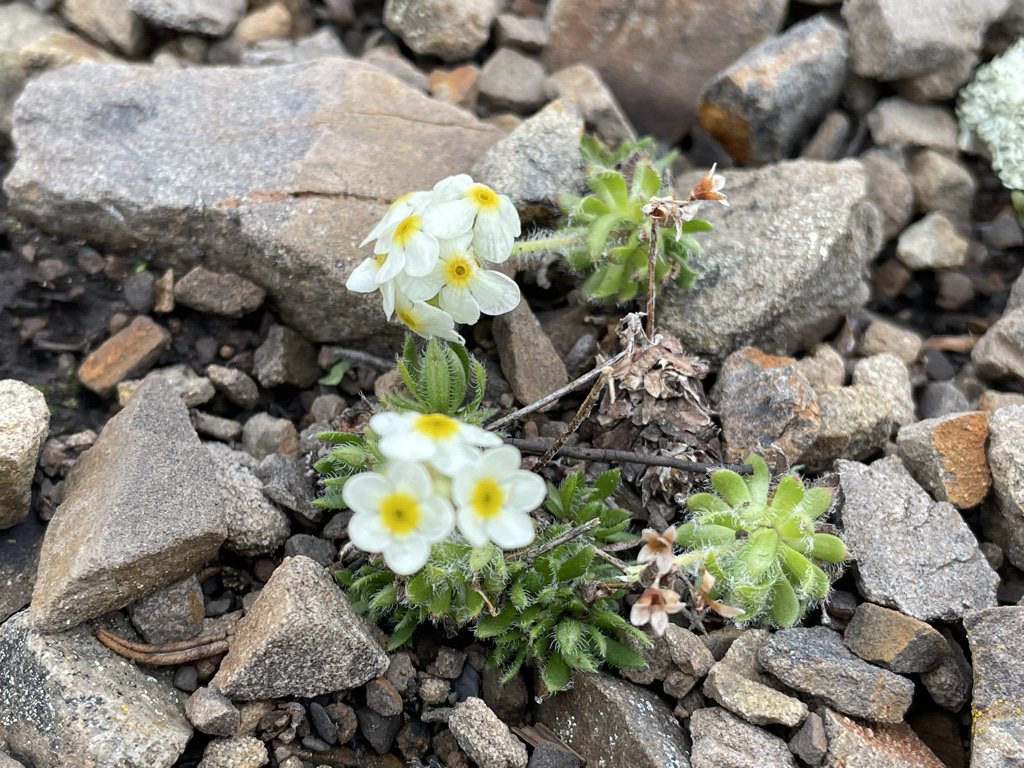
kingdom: Plantae
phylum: Tracheophyta
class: Magnoliopsida
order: Ericales
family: Primulaceae
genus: Androsace
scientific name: Androsace chamaejasme
